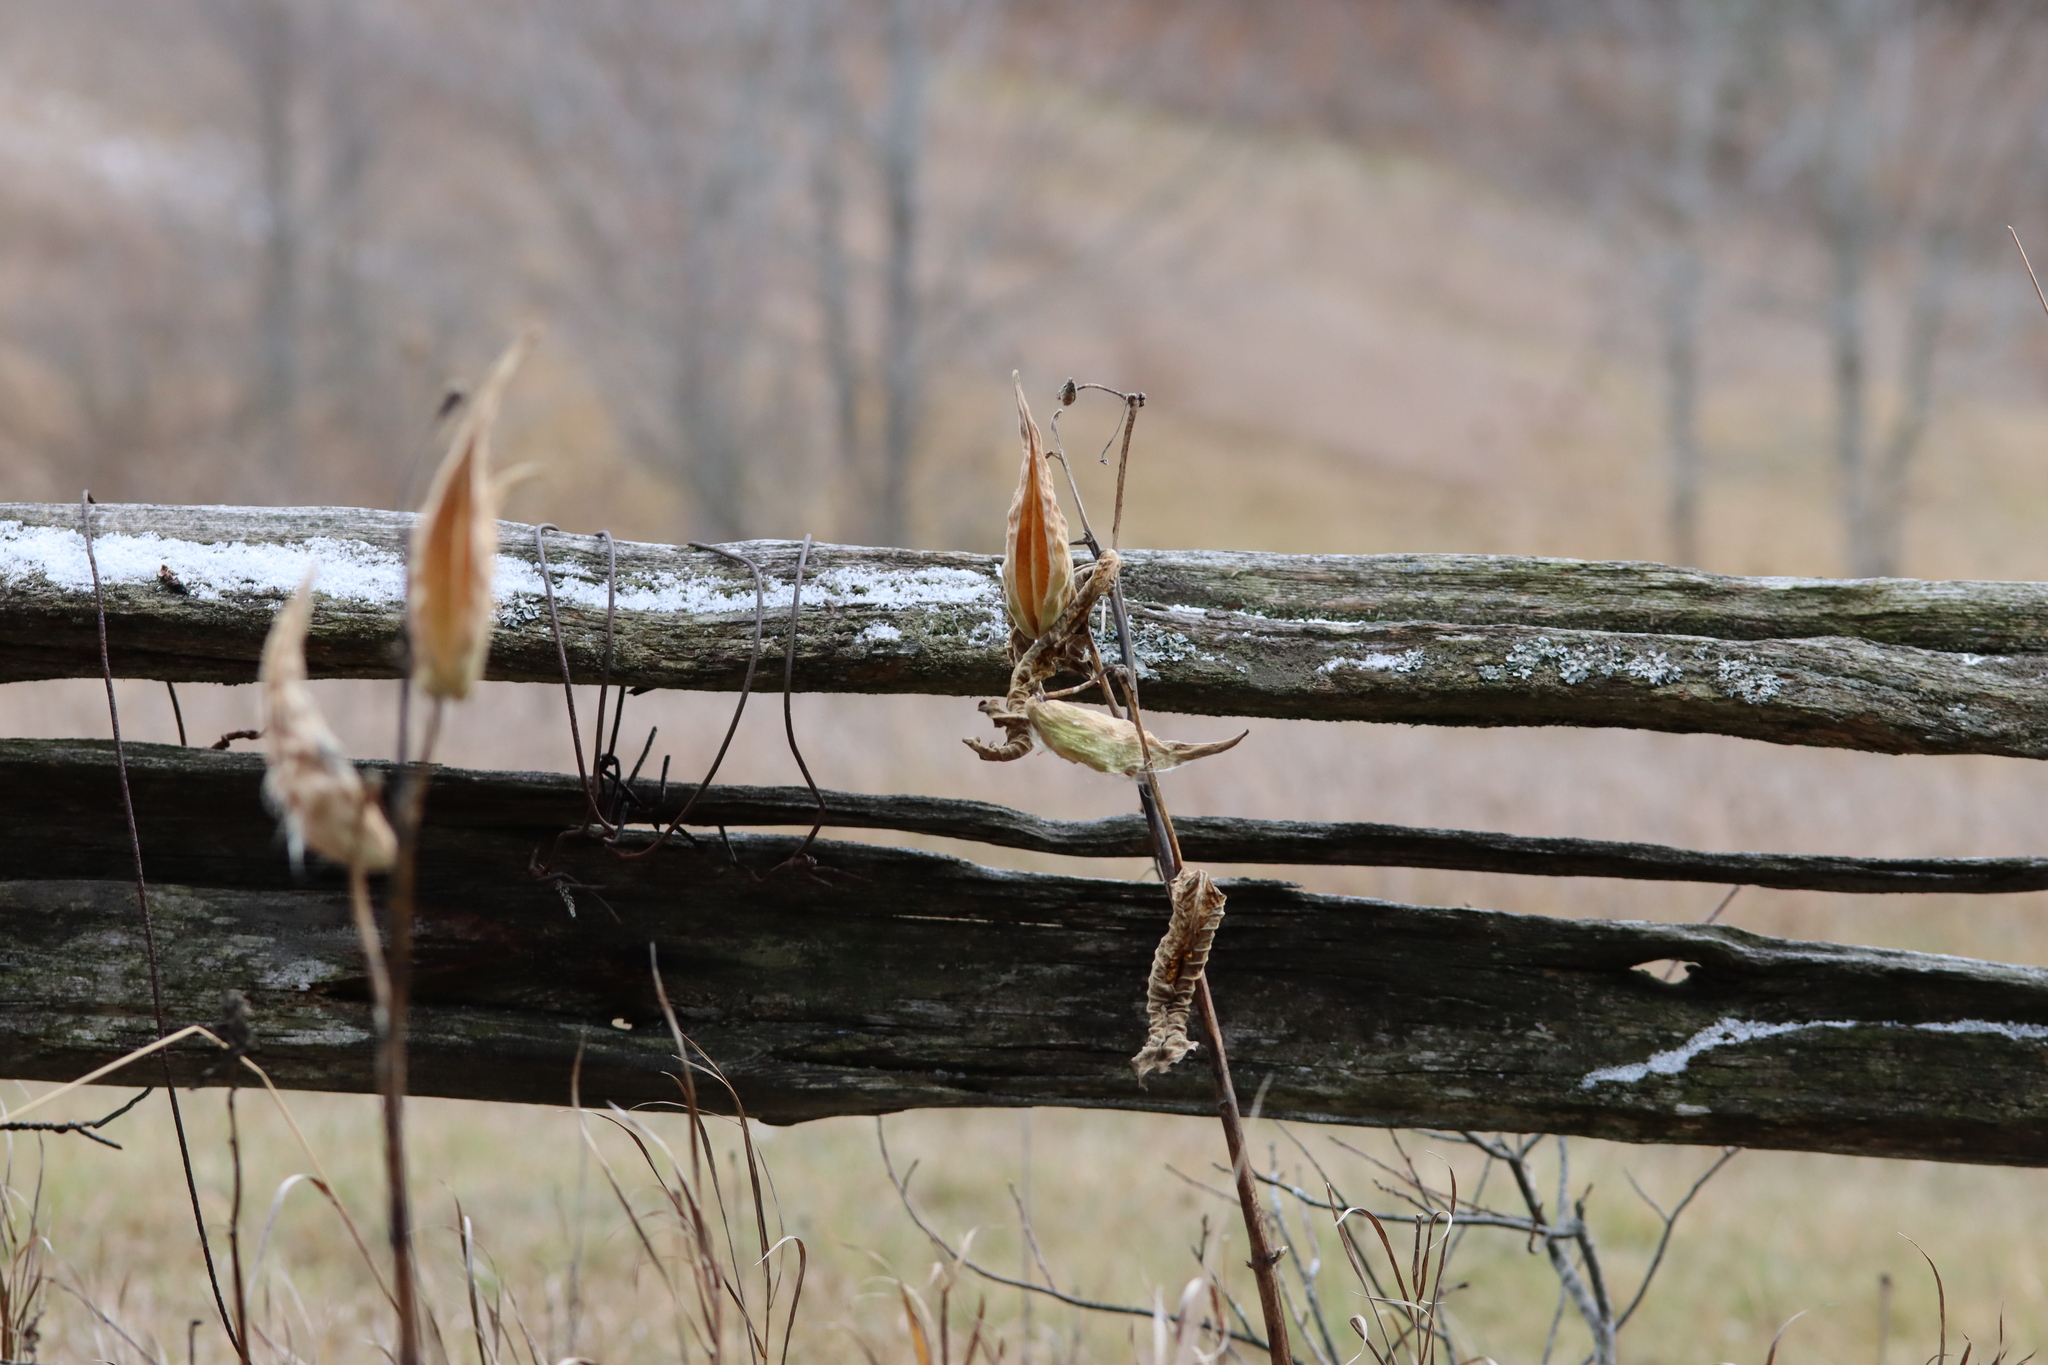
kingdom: Plantae
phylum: Tracheophyta
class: Magnoliopsida
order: Gentianales
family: Apocynaceae
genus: Asclepias
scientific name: Asclepias syriaca
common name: Common milkweed
